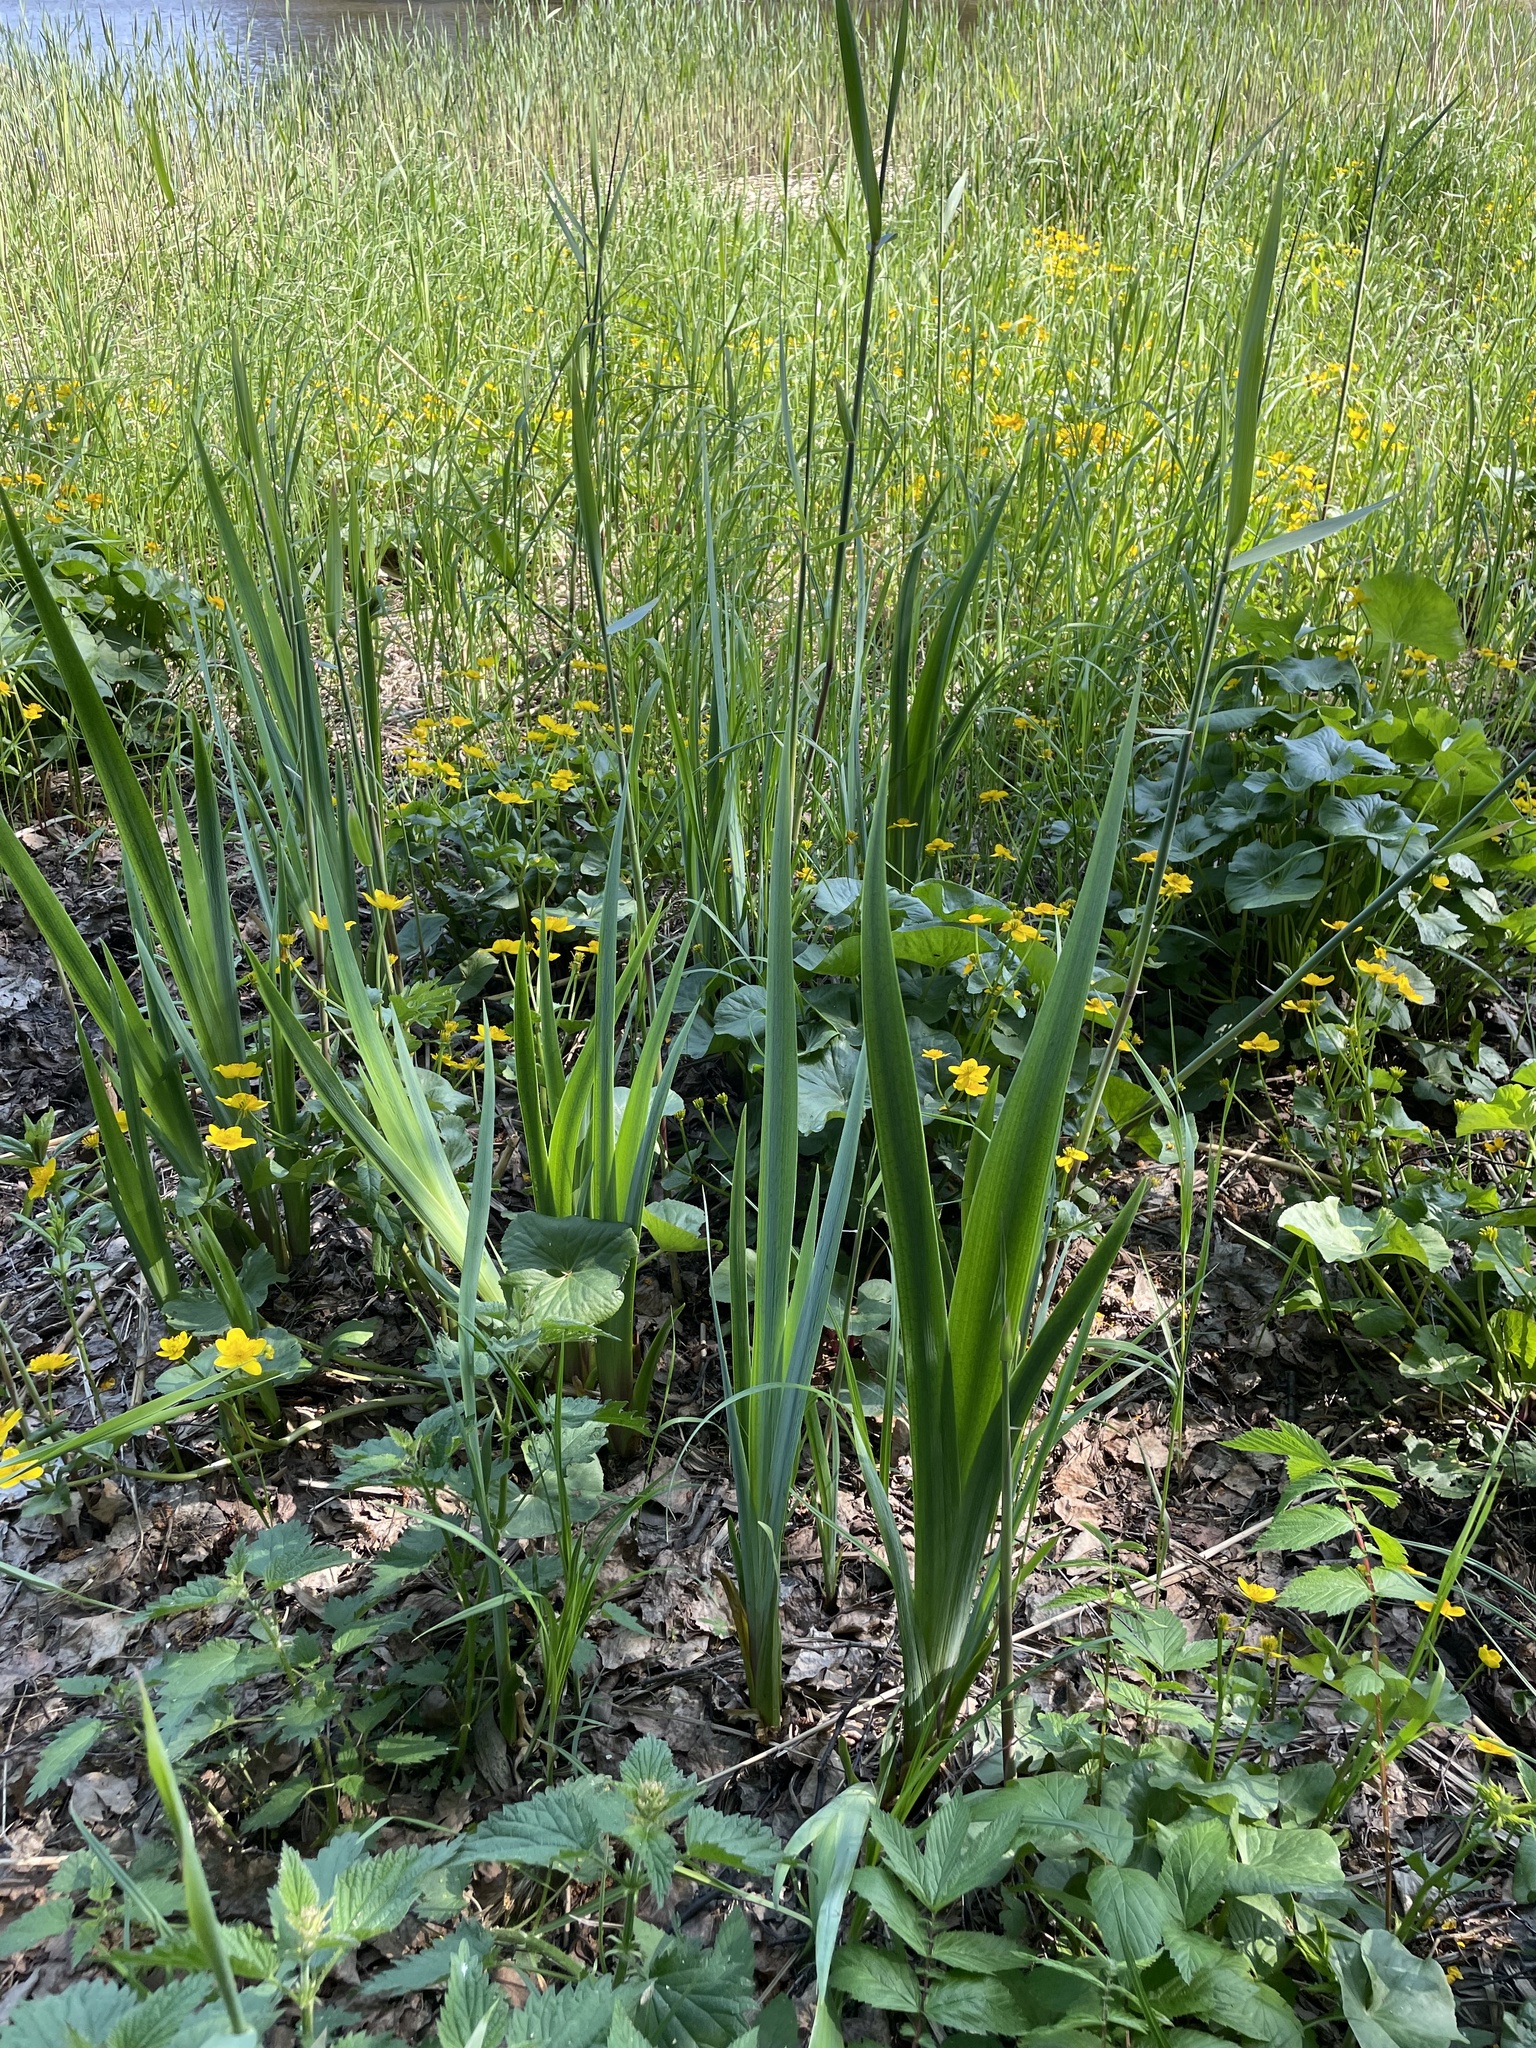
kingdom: Plantae
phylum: Tracheophyta
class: Magnoliopsida
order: Ranunculales
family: Ranunculaceae
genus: Caltha
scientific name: Caltha palustris
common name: Marsh marigold
